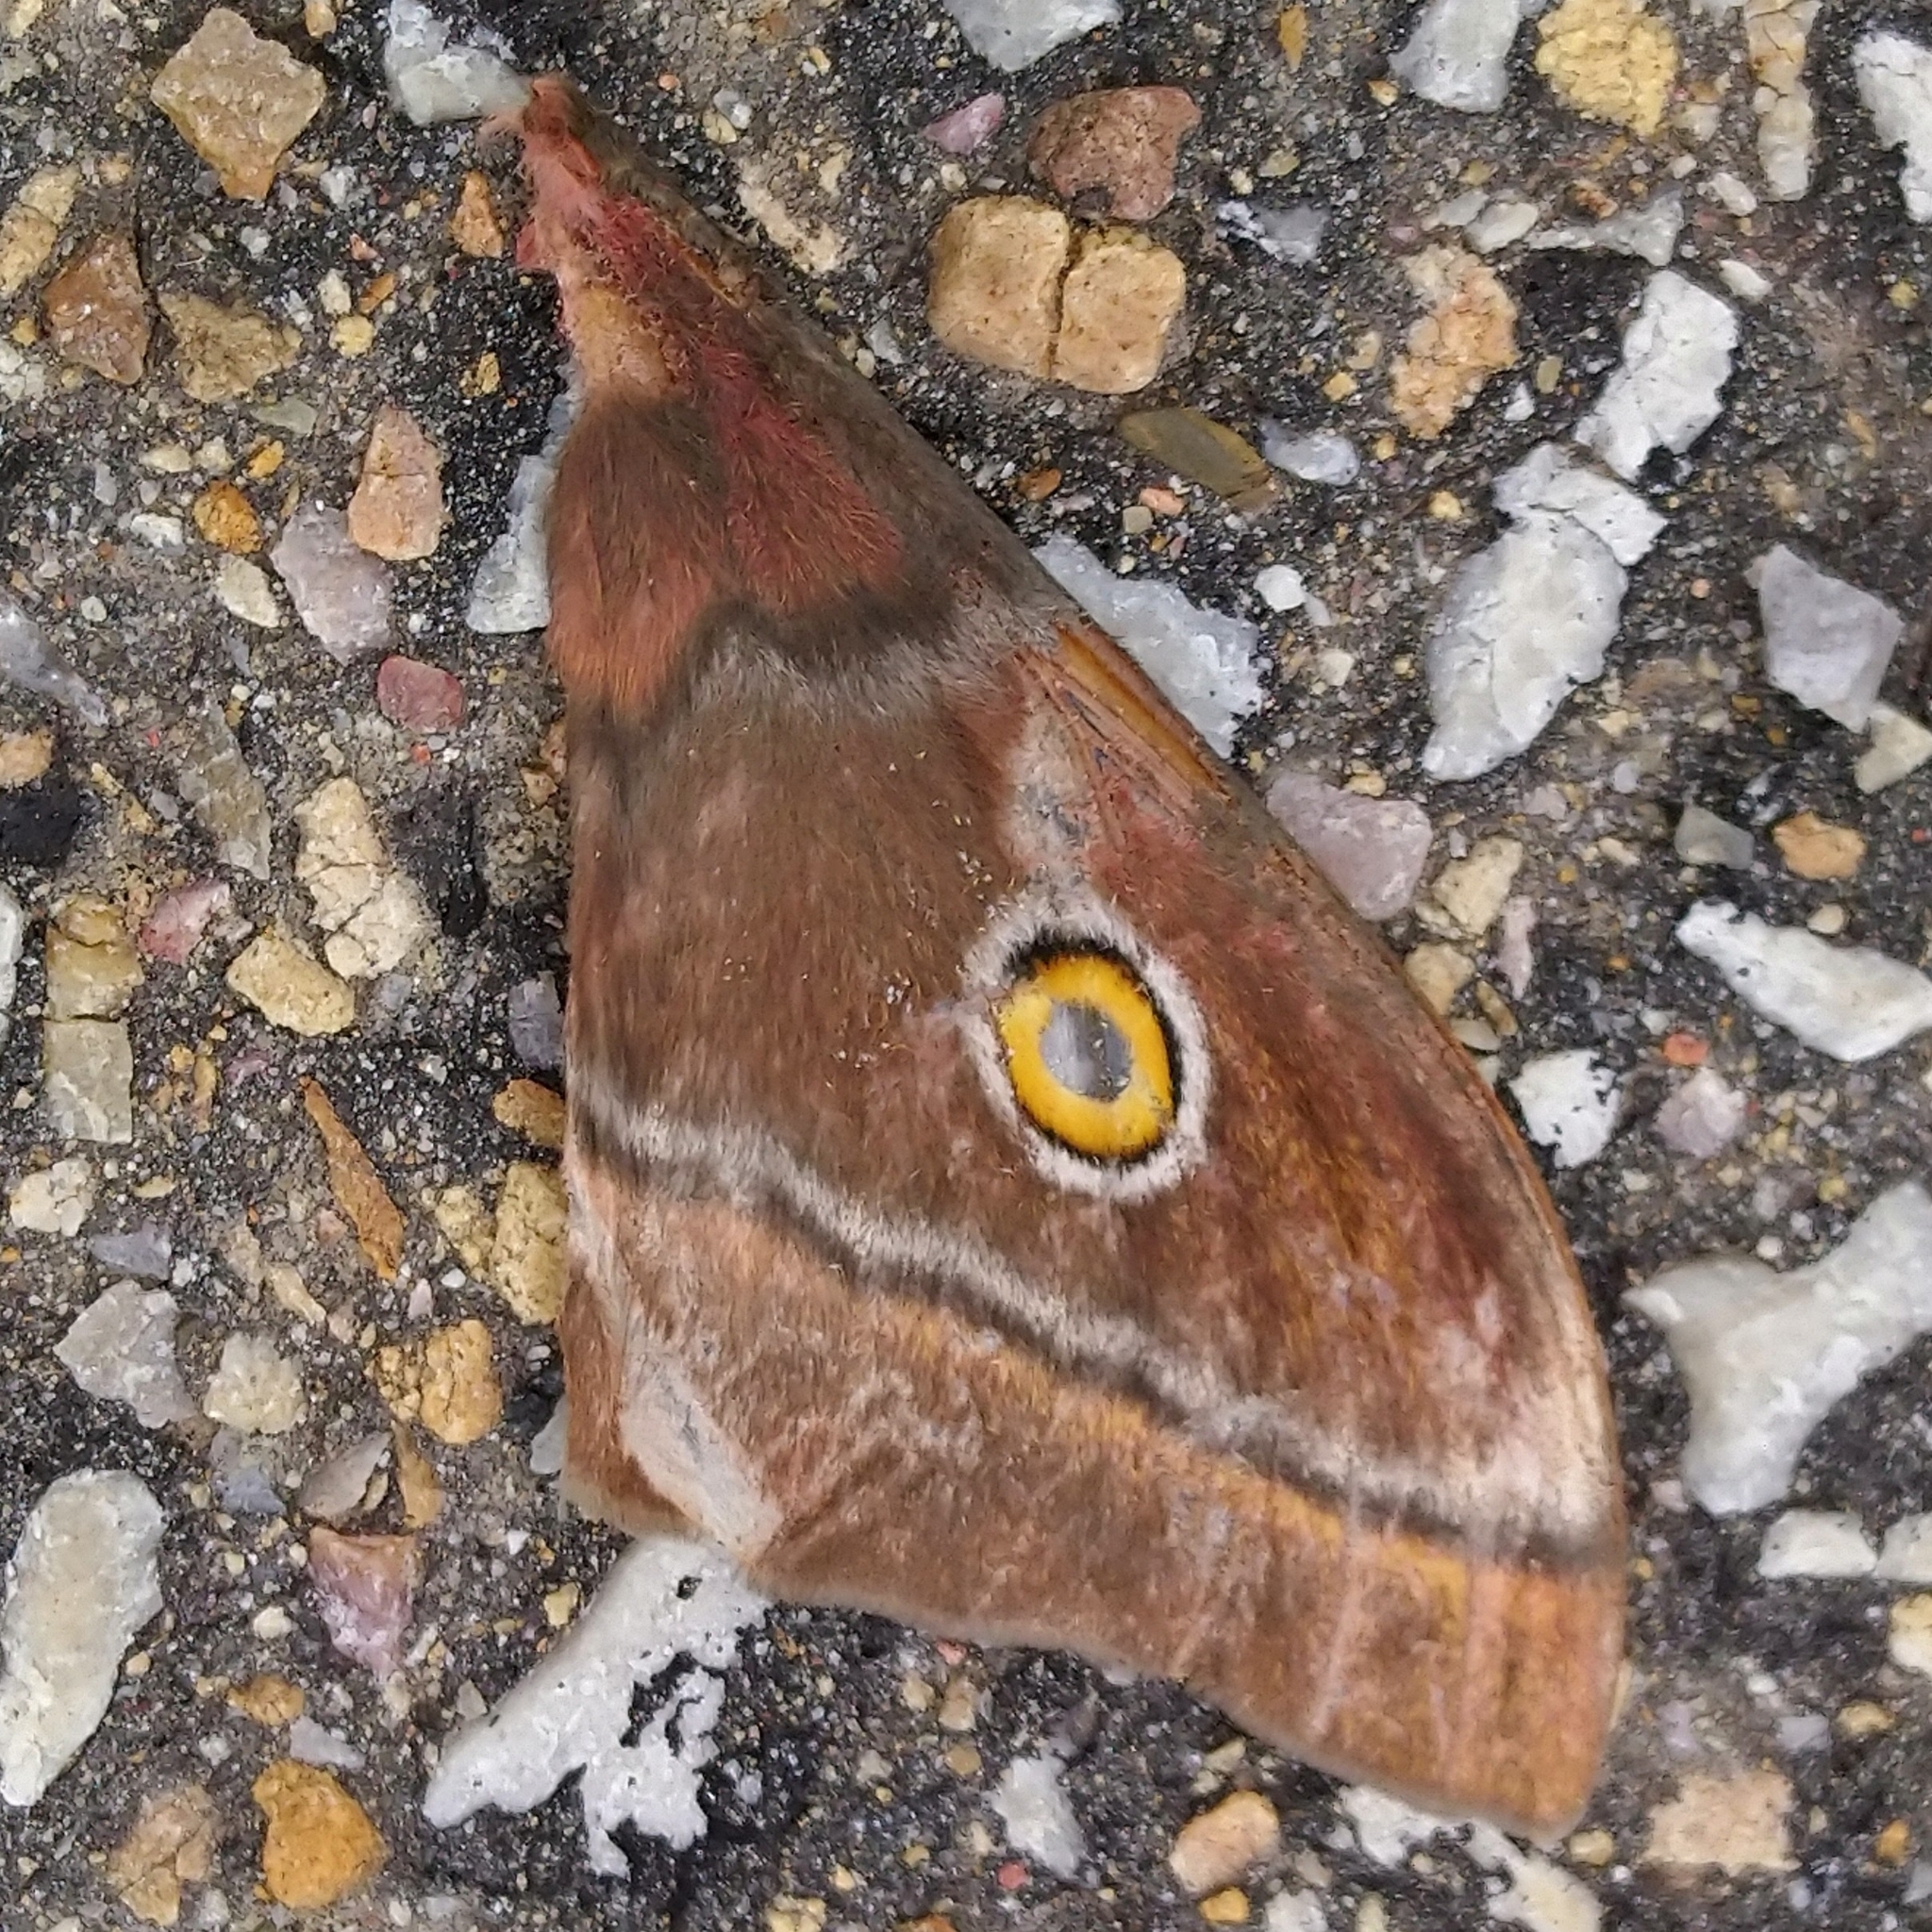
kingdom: Animalia
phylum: Arthropoda
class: Insecta
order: Lepidoptera
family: Saturniidae
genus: Nudaurelia
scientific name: Nudaurelia cytherea
